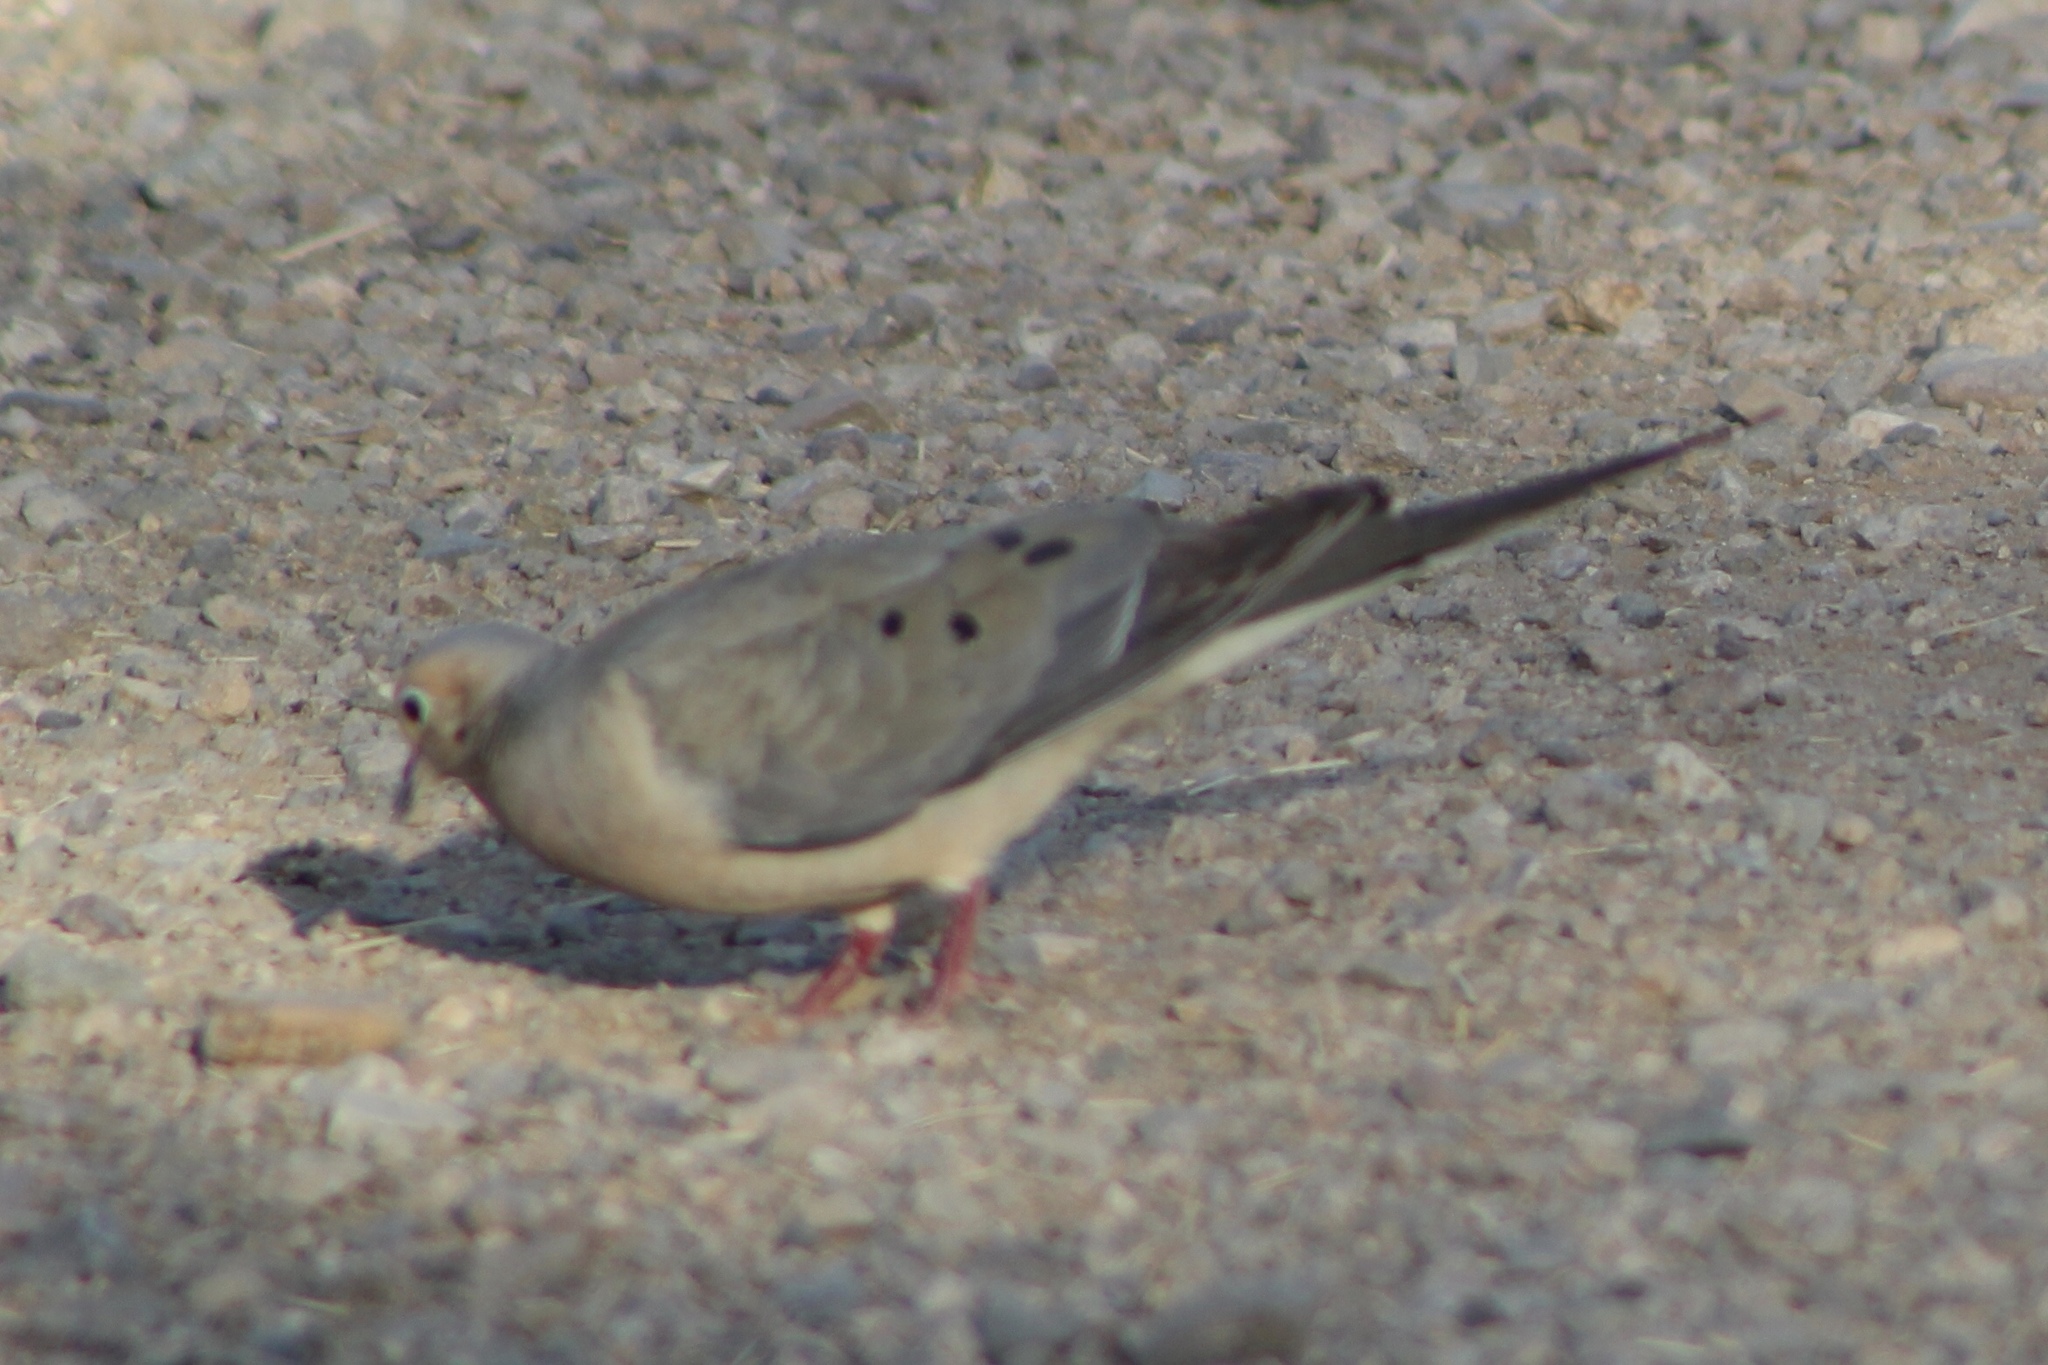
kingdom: Animalia
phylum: Chordata
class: Aves
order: Columbiformes
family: Columbidae
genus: Zenaida
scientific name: Zenaida macroura
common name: Mourning dove
